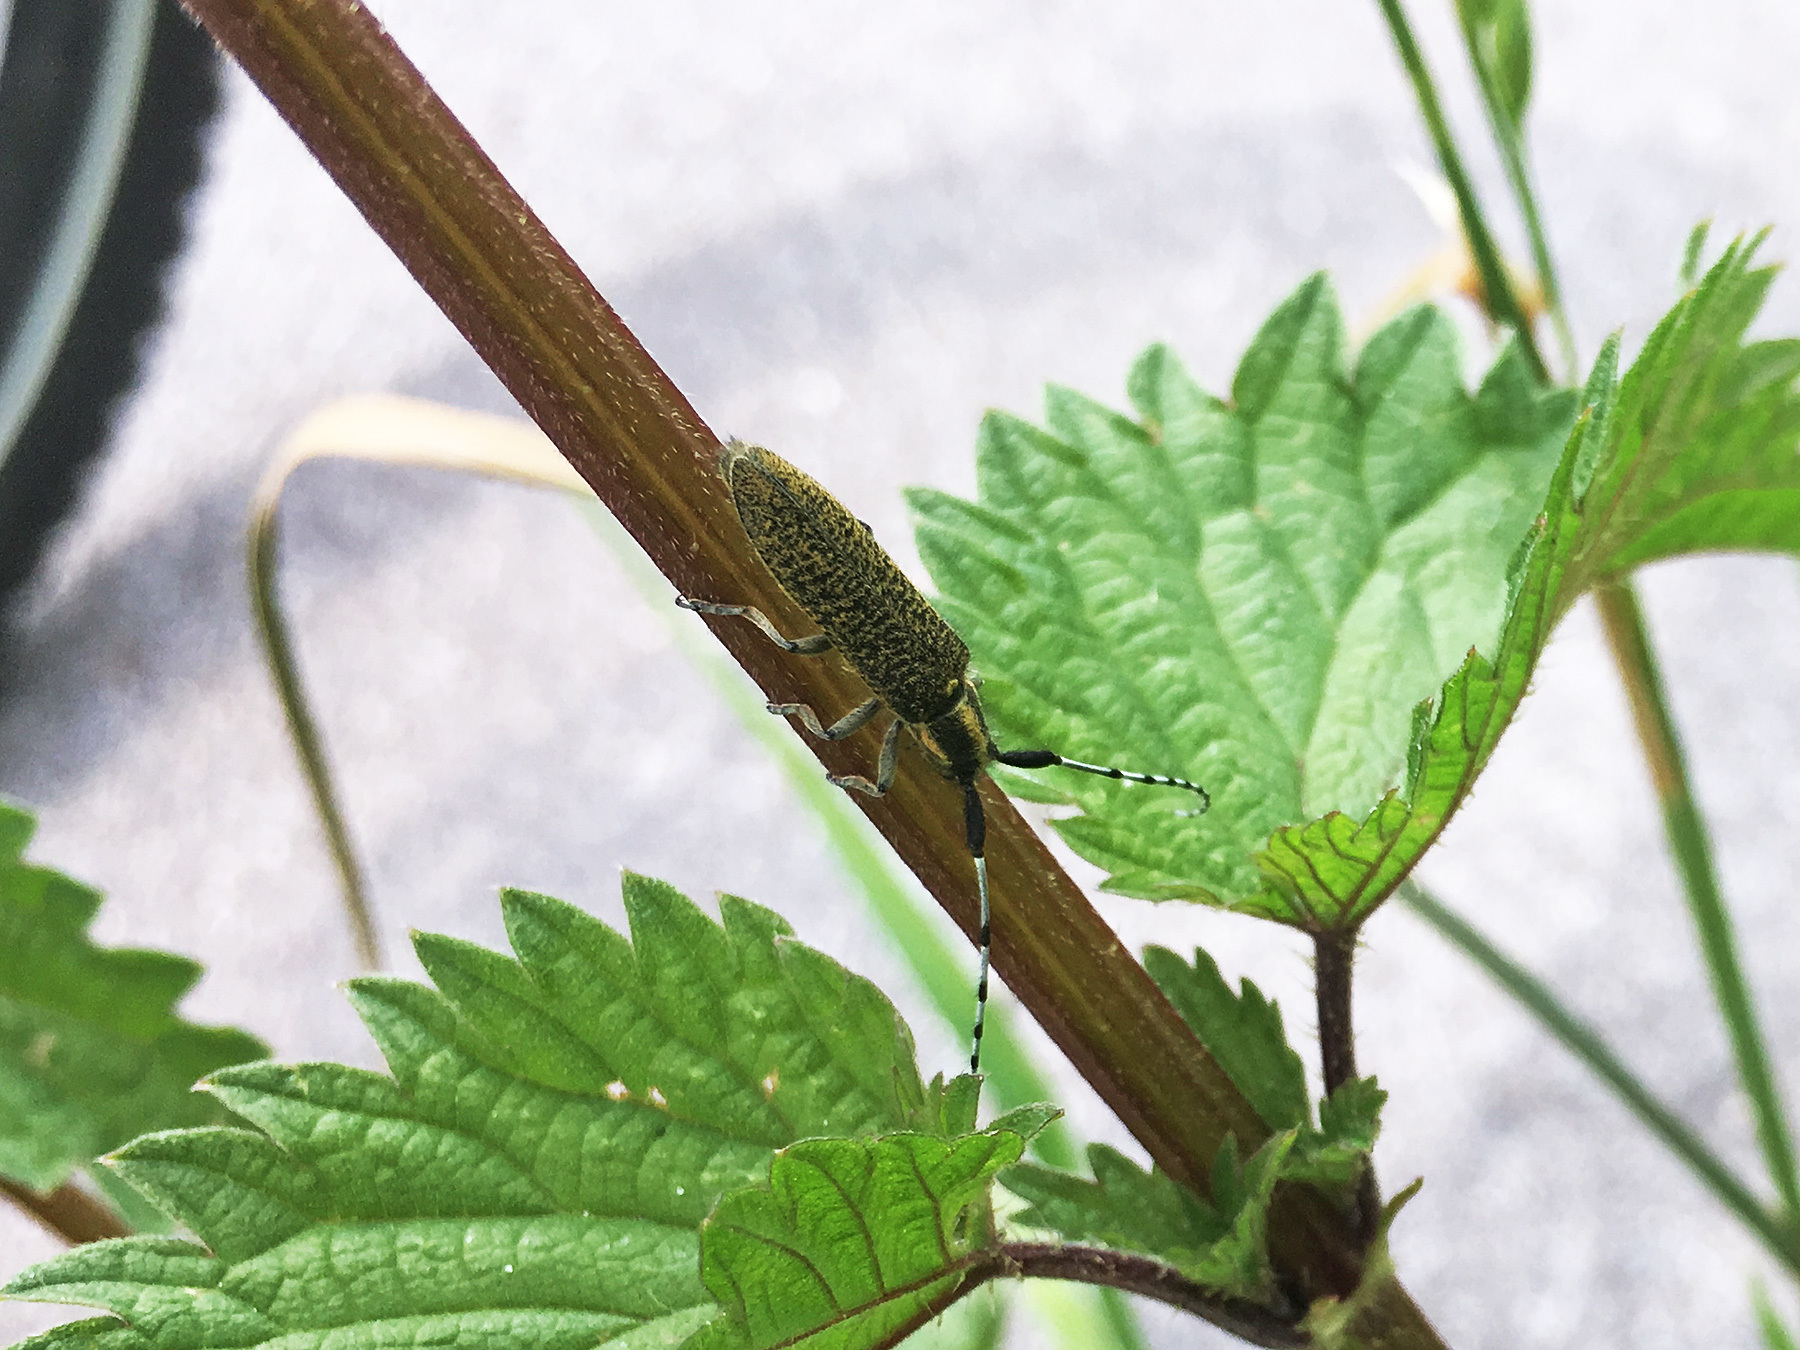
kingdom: Animalia
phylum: Arthropoda
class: Insecta
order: Coleoptera
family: Cerambycidae
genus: Agapanthia
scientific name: Agapanthia villosoviridescens
